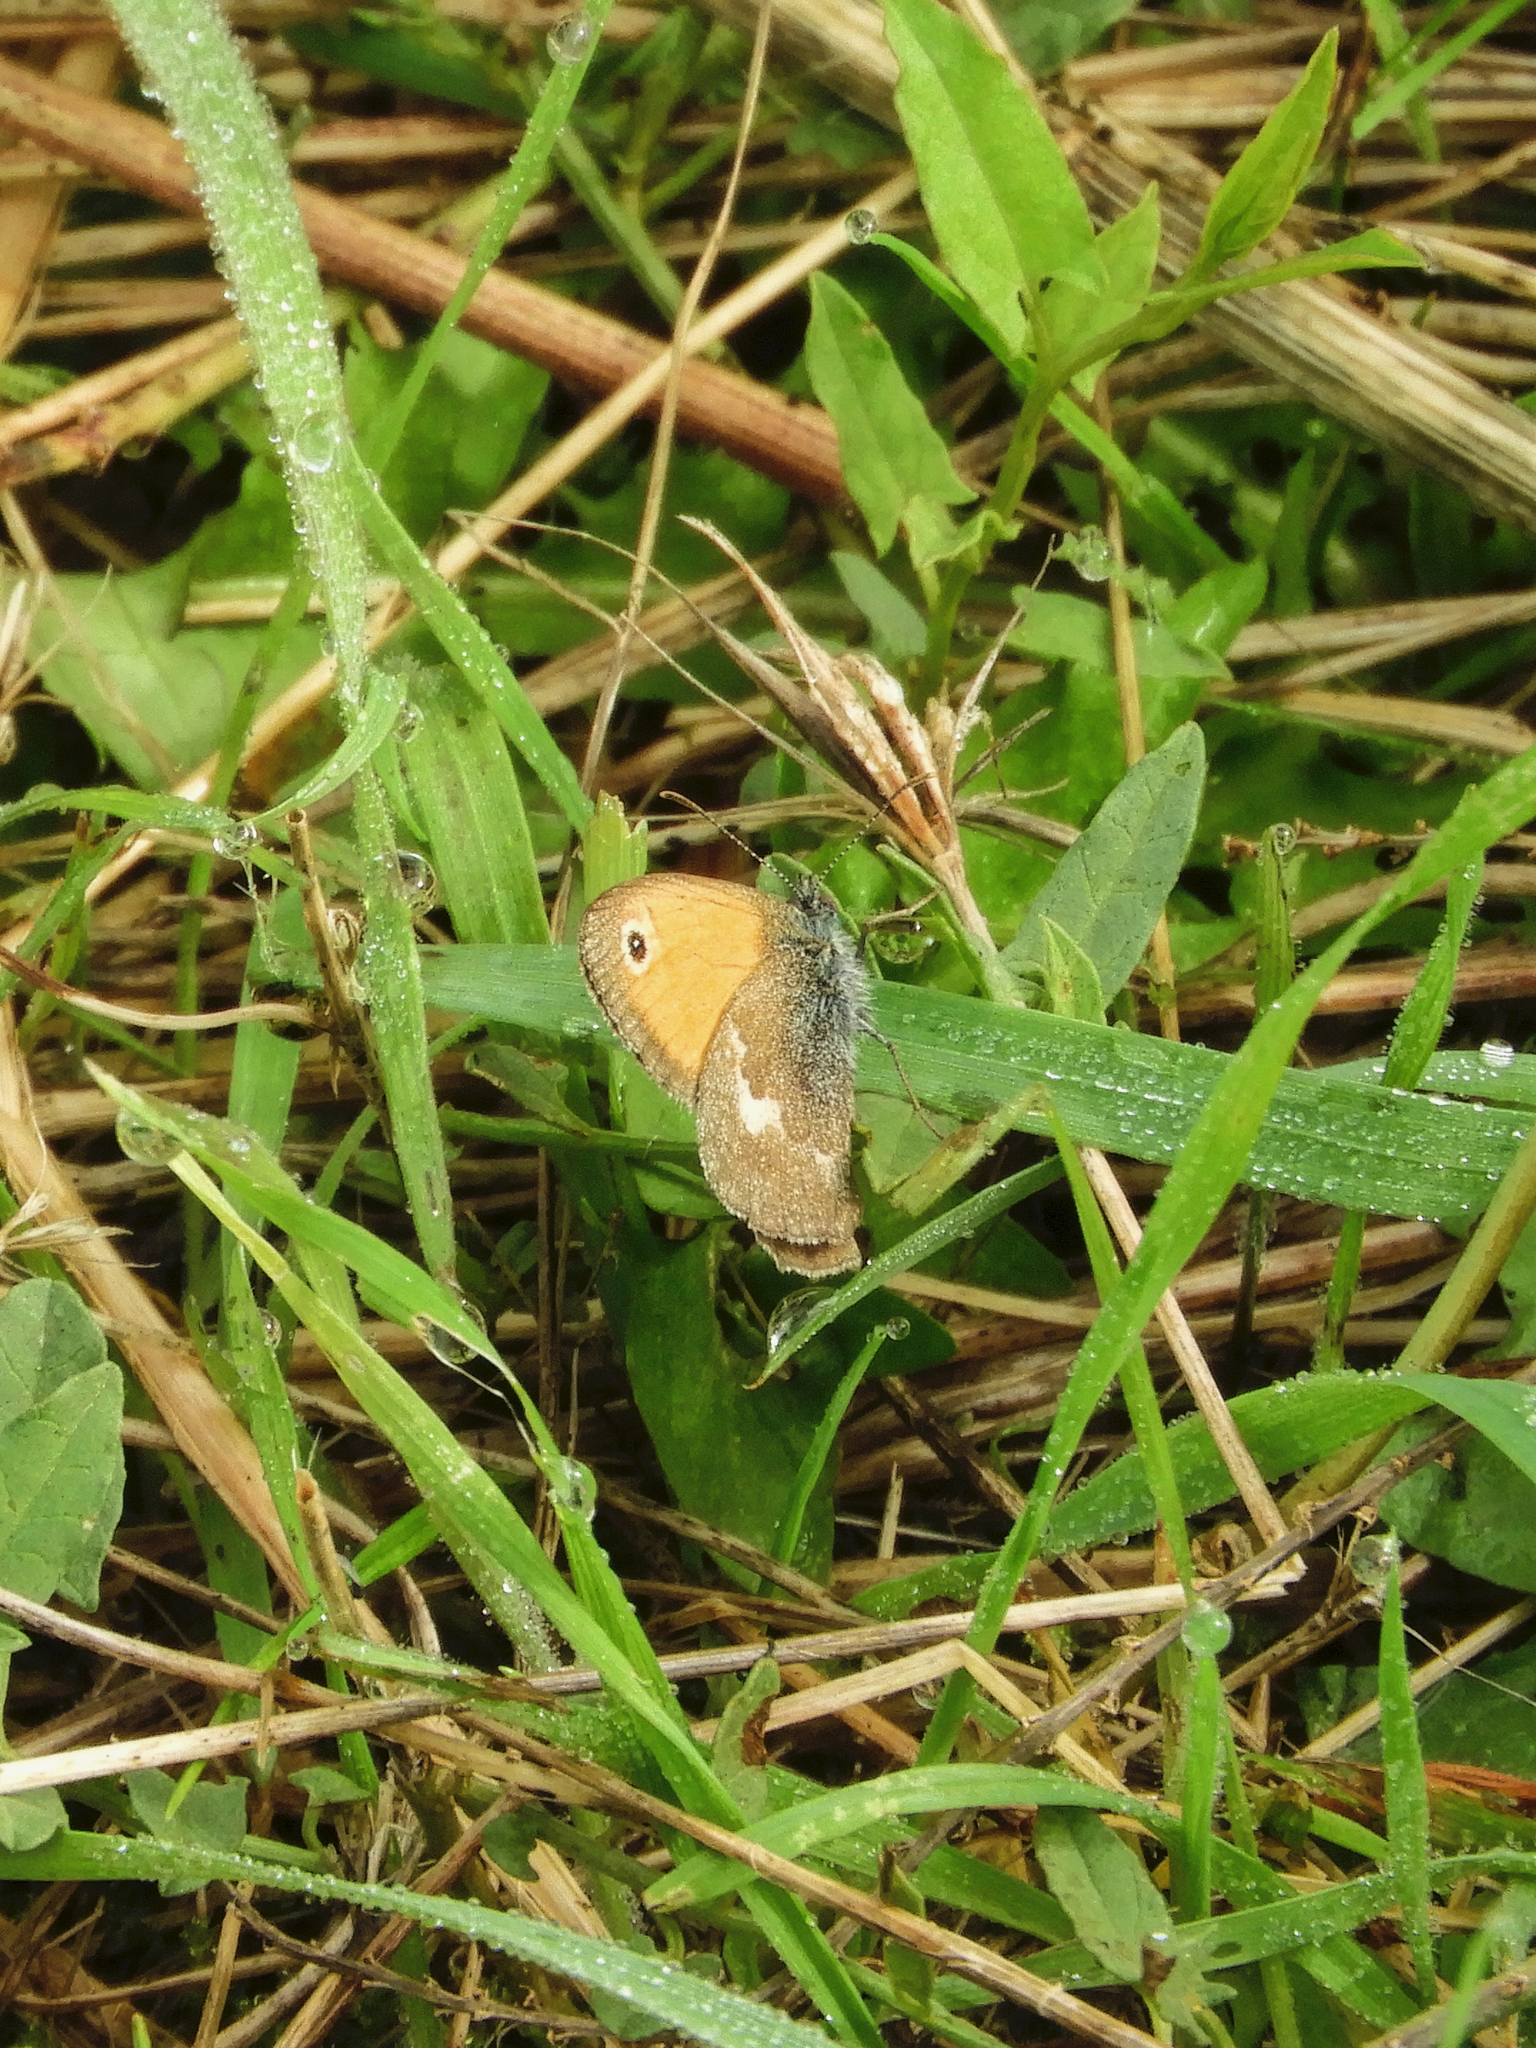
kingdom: Animalia
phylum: Arthropoda
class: Insecta
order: Lepidoptera
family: Nymphalidae
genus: Coenonympha
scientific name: Coenonympha pamphilus
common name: Small heath
